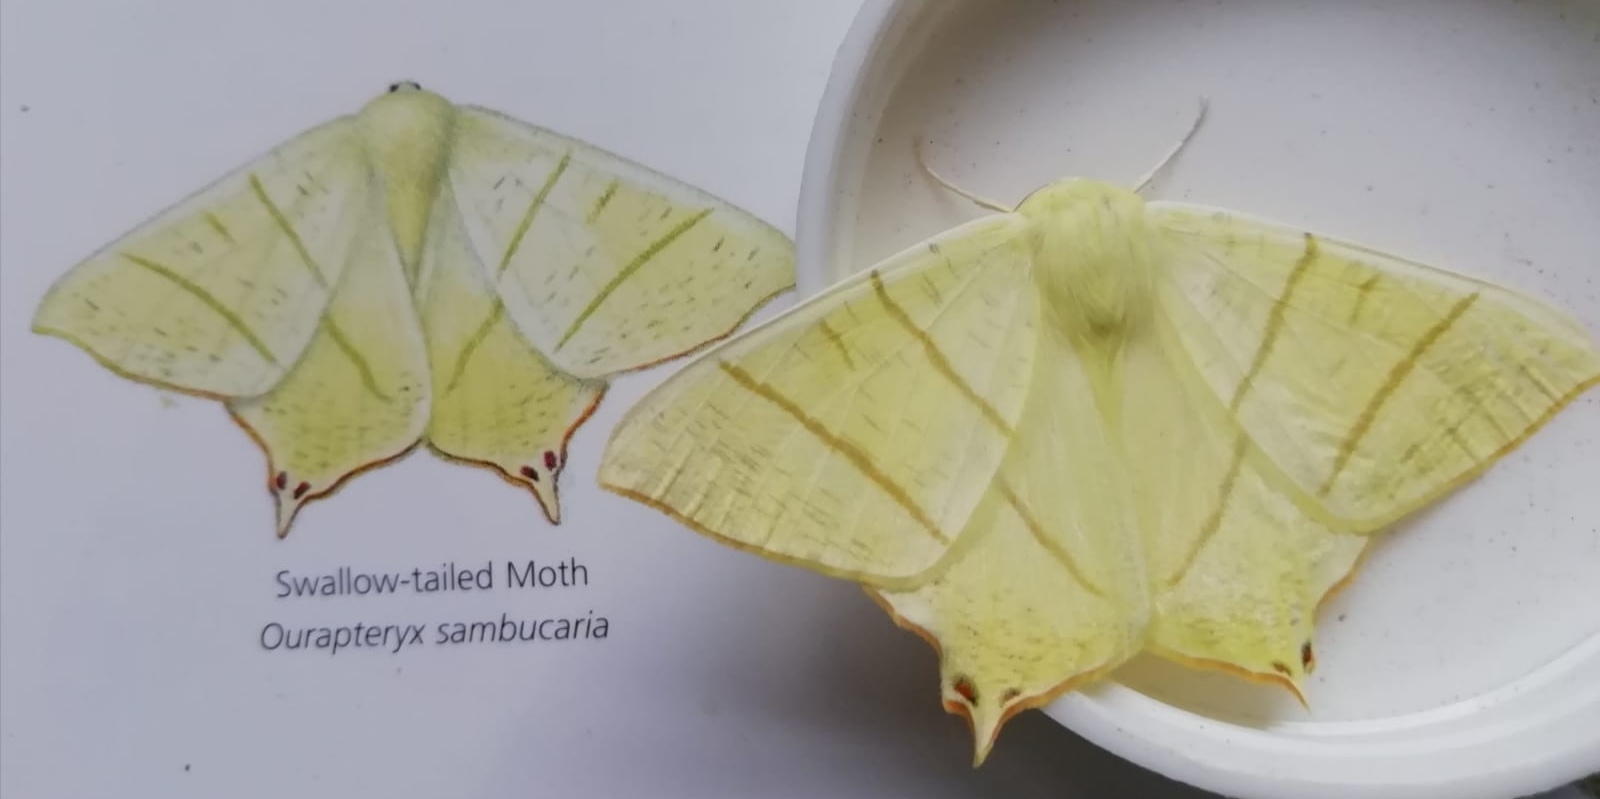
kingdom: Animalia
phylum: Arthropoda
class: Insecta
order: Lepidoptera
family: Geometridae
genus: Ourapteryx
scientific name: Ourapteryx sambucaria
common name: Swallow-tailed moth
